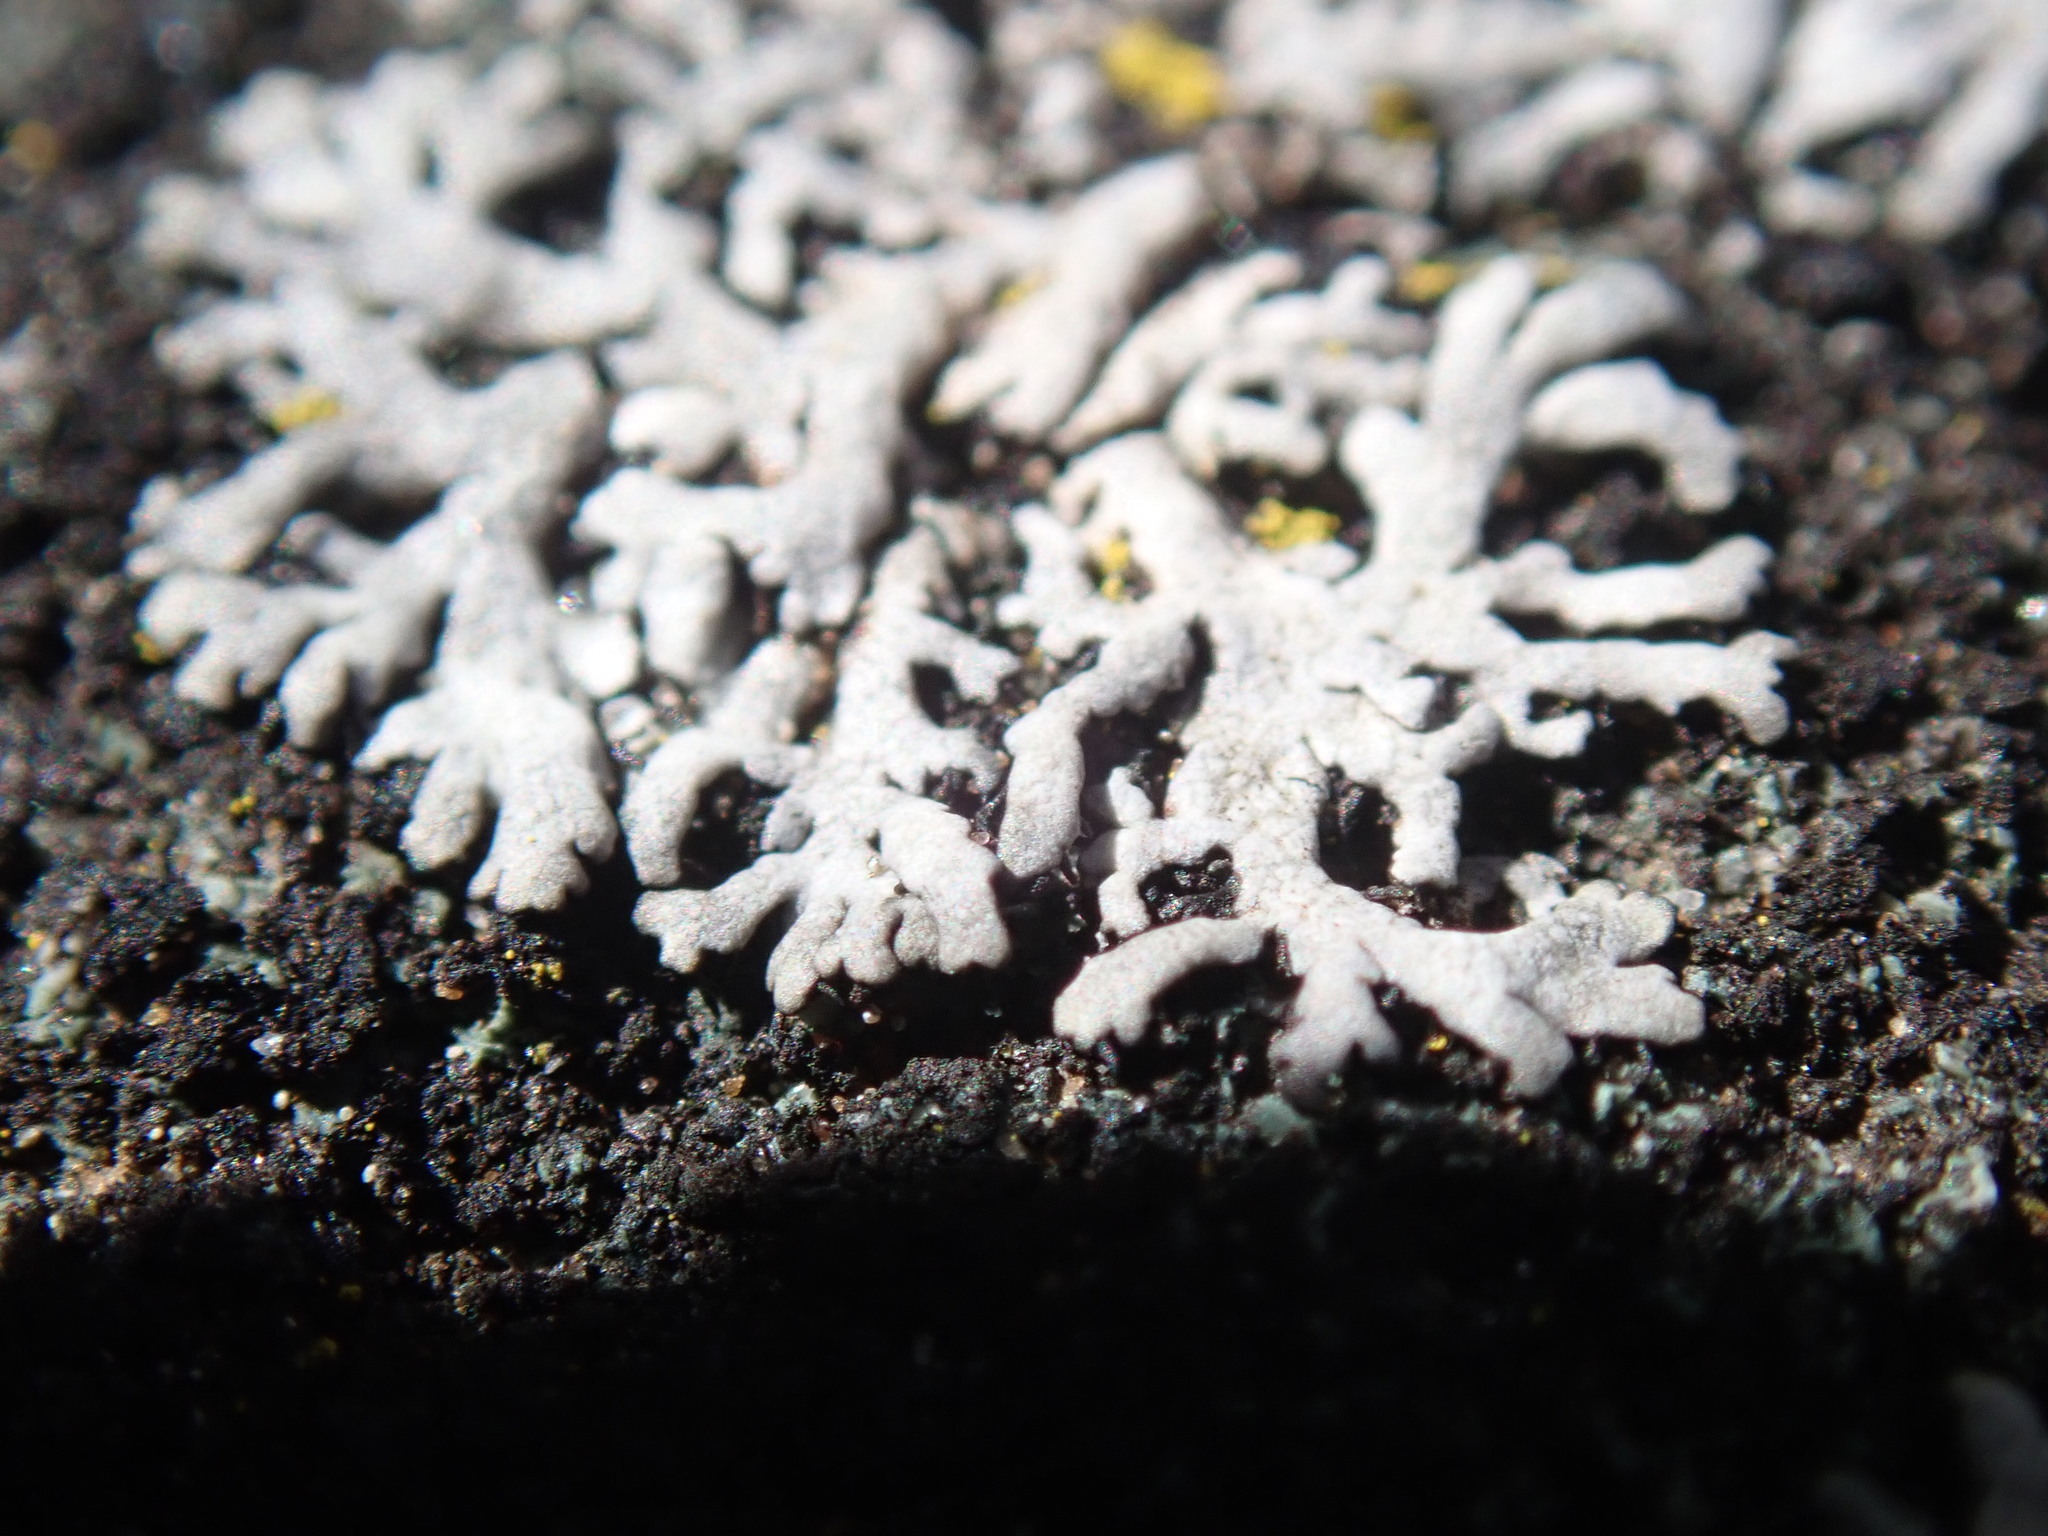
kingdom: Fungi
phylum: Ascomycota
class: Lecanoromycetes
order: Caliciales
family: Physciaceae
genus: Physcia
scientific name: Physcia caesia
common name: Blue-gray rosette lichen
